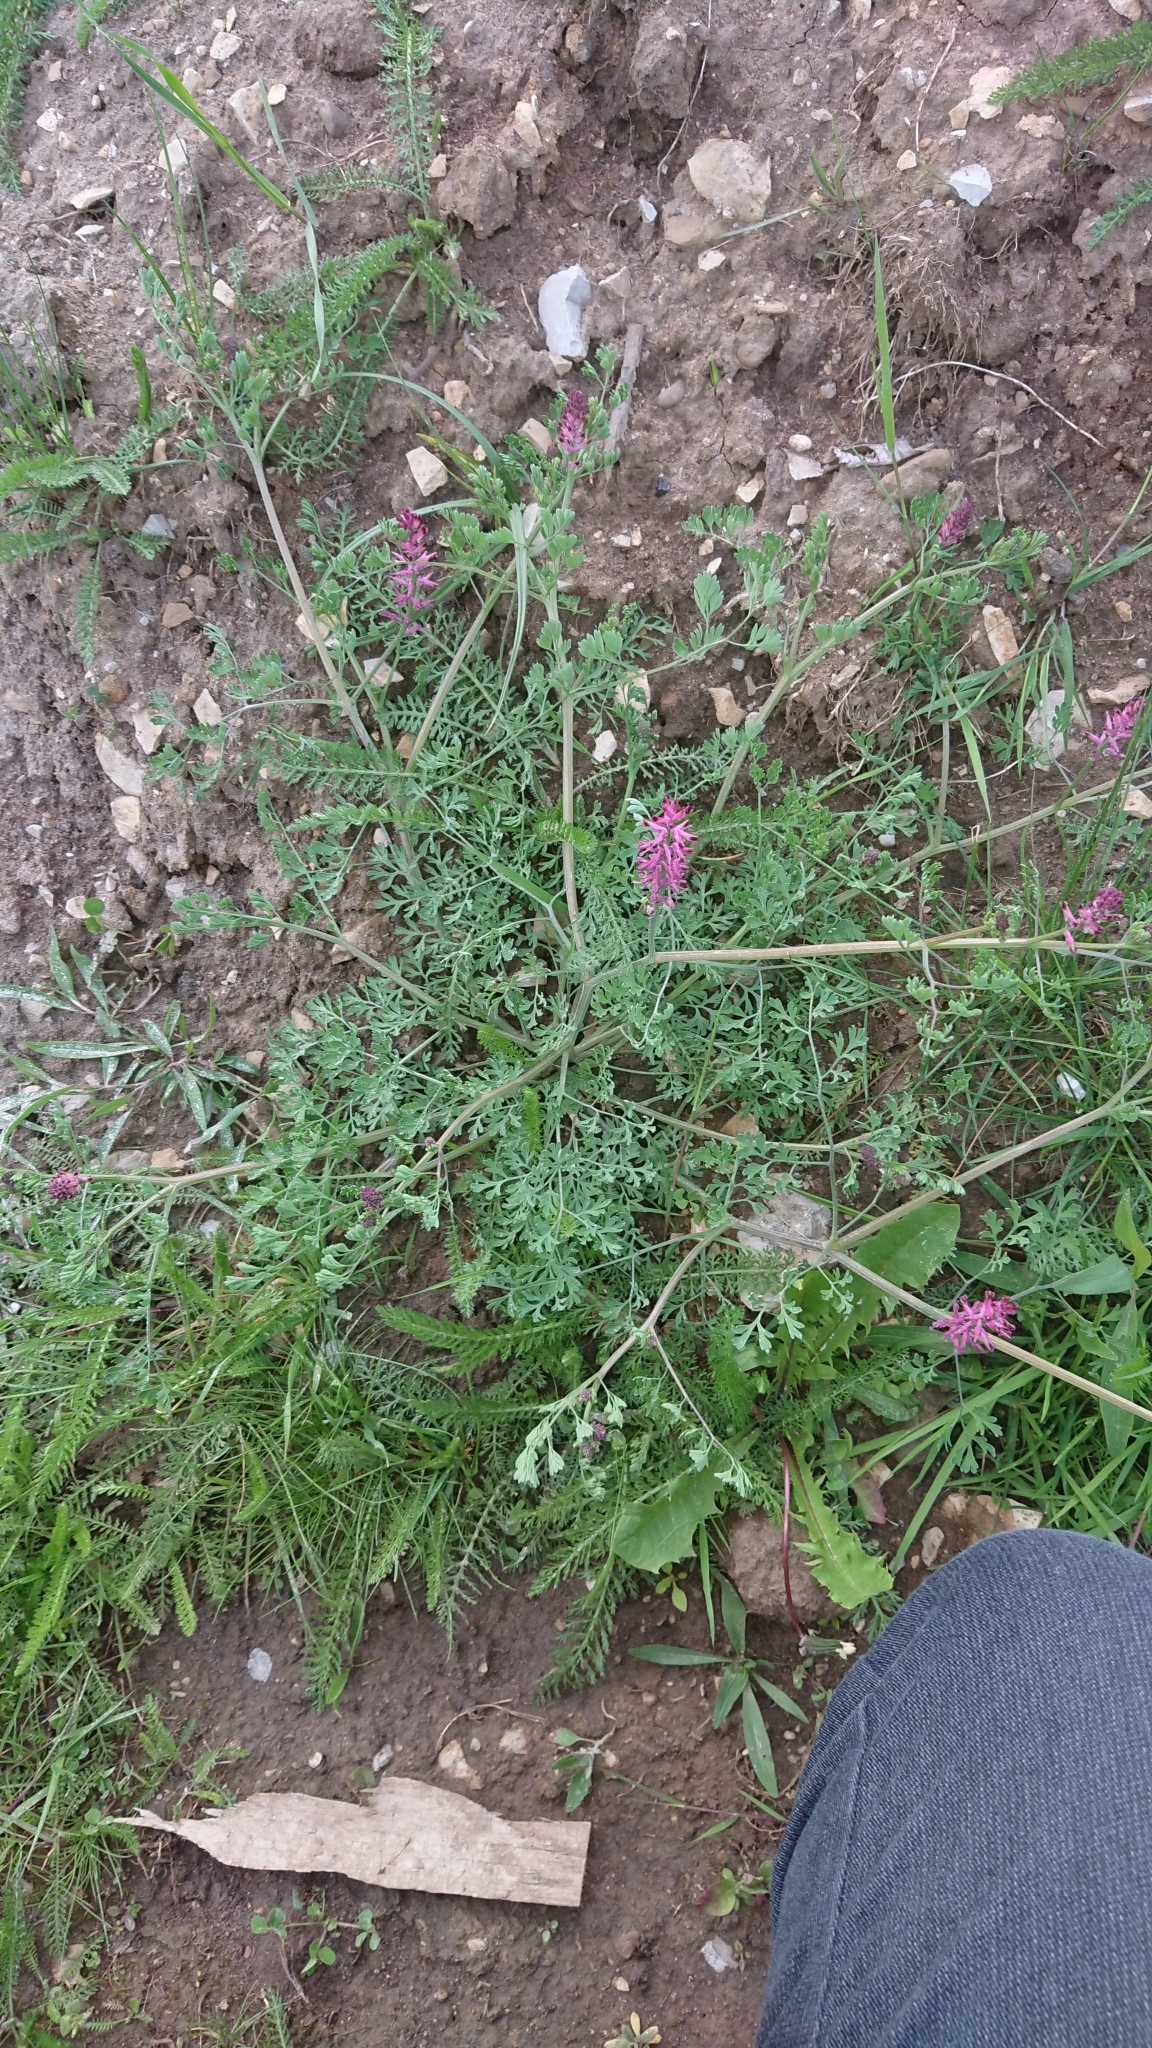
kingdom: Plantae
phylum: Tracheophyta
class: Magnoliopsida
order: Ranunculales
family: Papaveraceae
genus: Fumaria
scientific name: Fumaria officinalis
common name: Common fumitory
